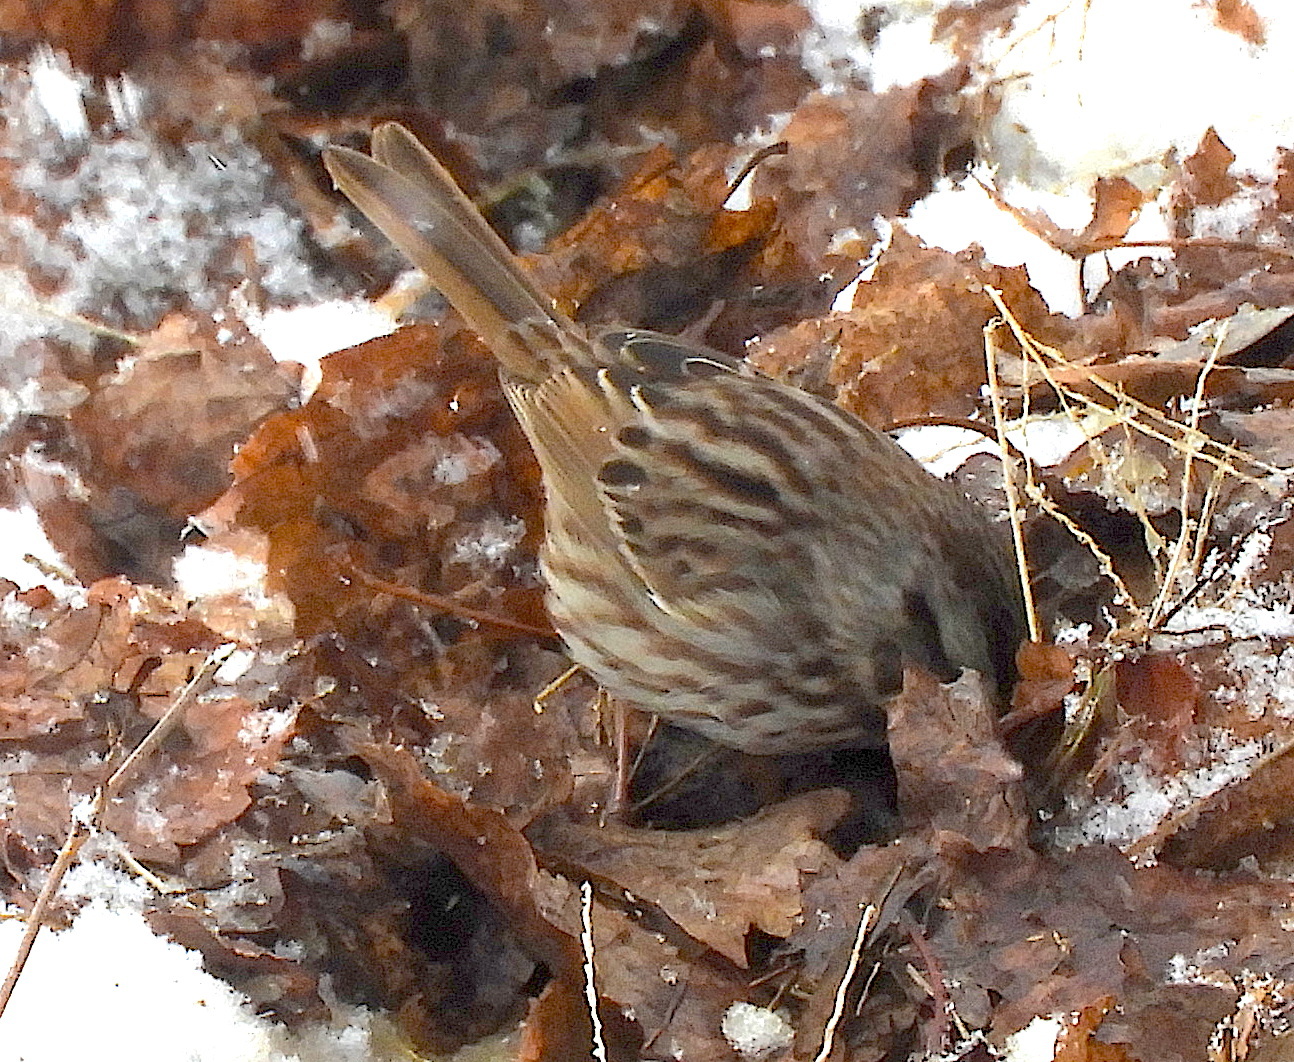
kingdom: Animalia
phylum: Chordata
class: Aves
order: Passeriformes
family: Passerellidae
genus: Melospiza
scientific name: Melospiza melodia
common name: Song sparrow
